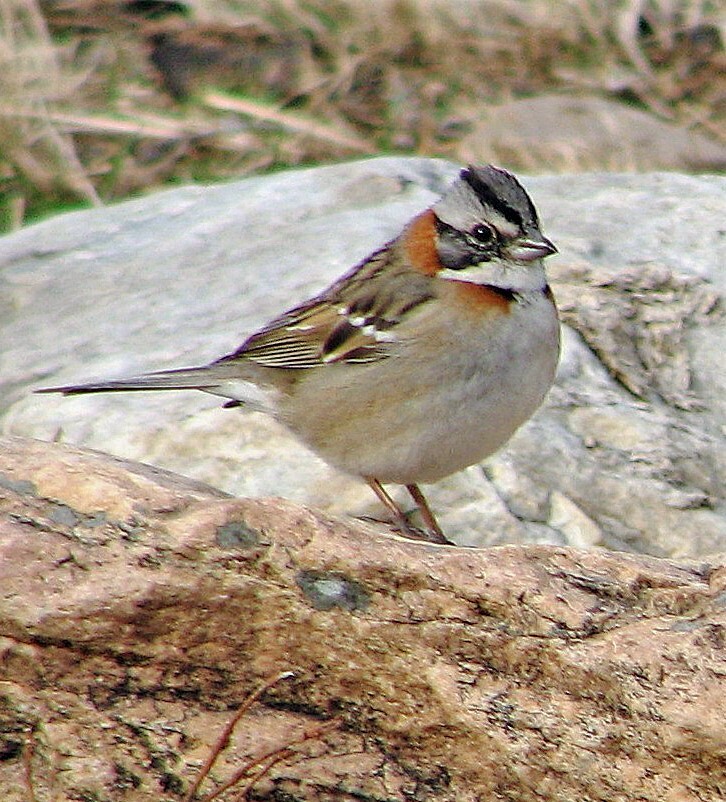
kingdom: Animalia
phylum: Chordata
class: Aves
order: Passeriformes
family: Passerellidae
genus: Zonotrichia
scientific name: Zonotrichia capensis
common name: Rufous-collared sparrow
